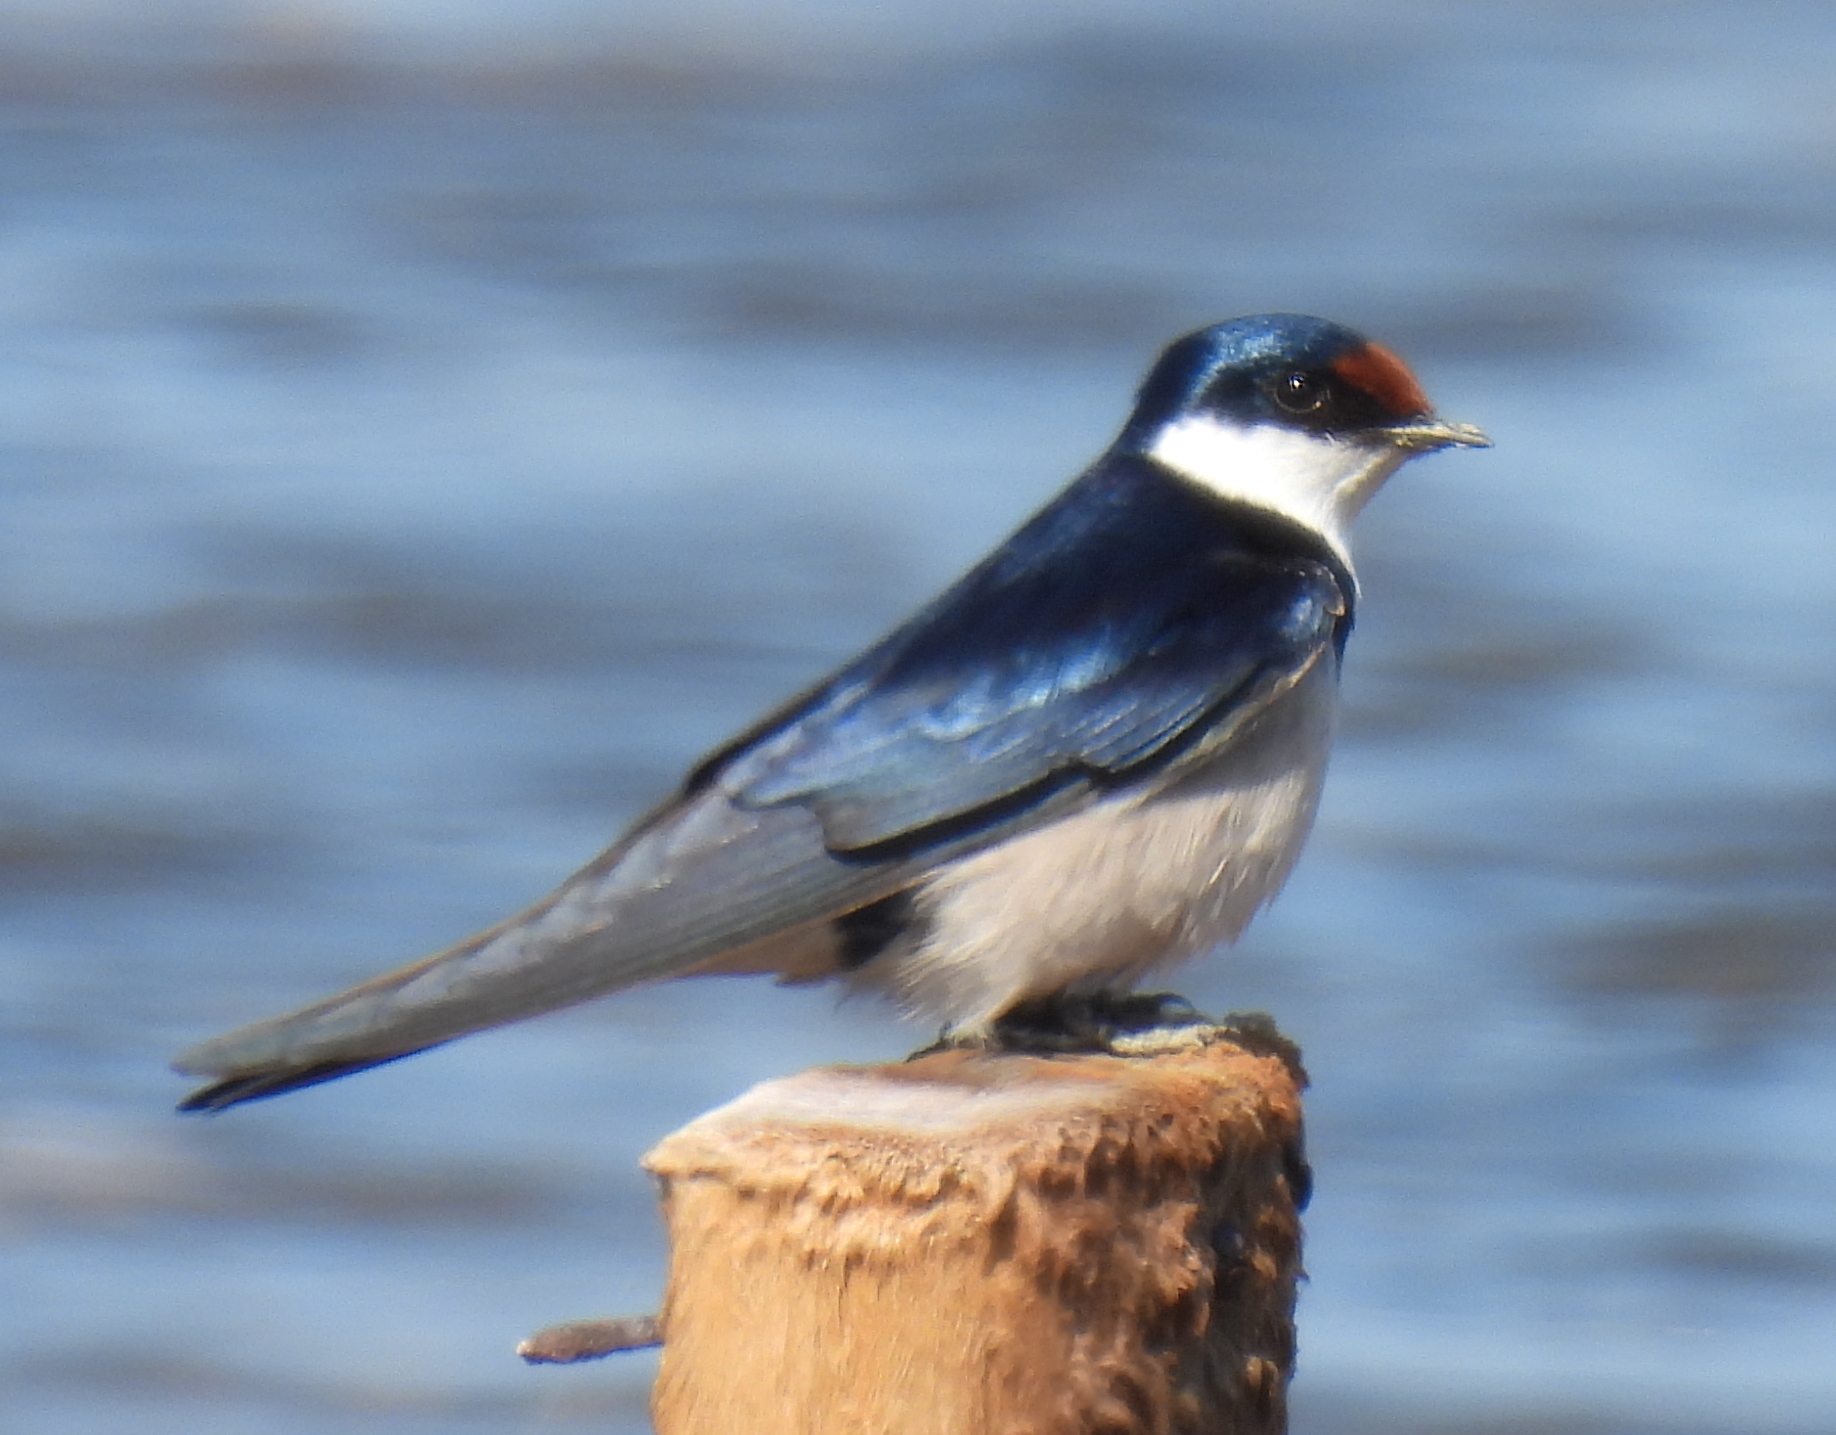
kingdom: Animalia
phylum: Chordata
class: Aves
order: Passeriformes
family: Hirundinidae
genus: Hirundo
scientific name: Hirundo albigularis
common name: White-throated swallow
